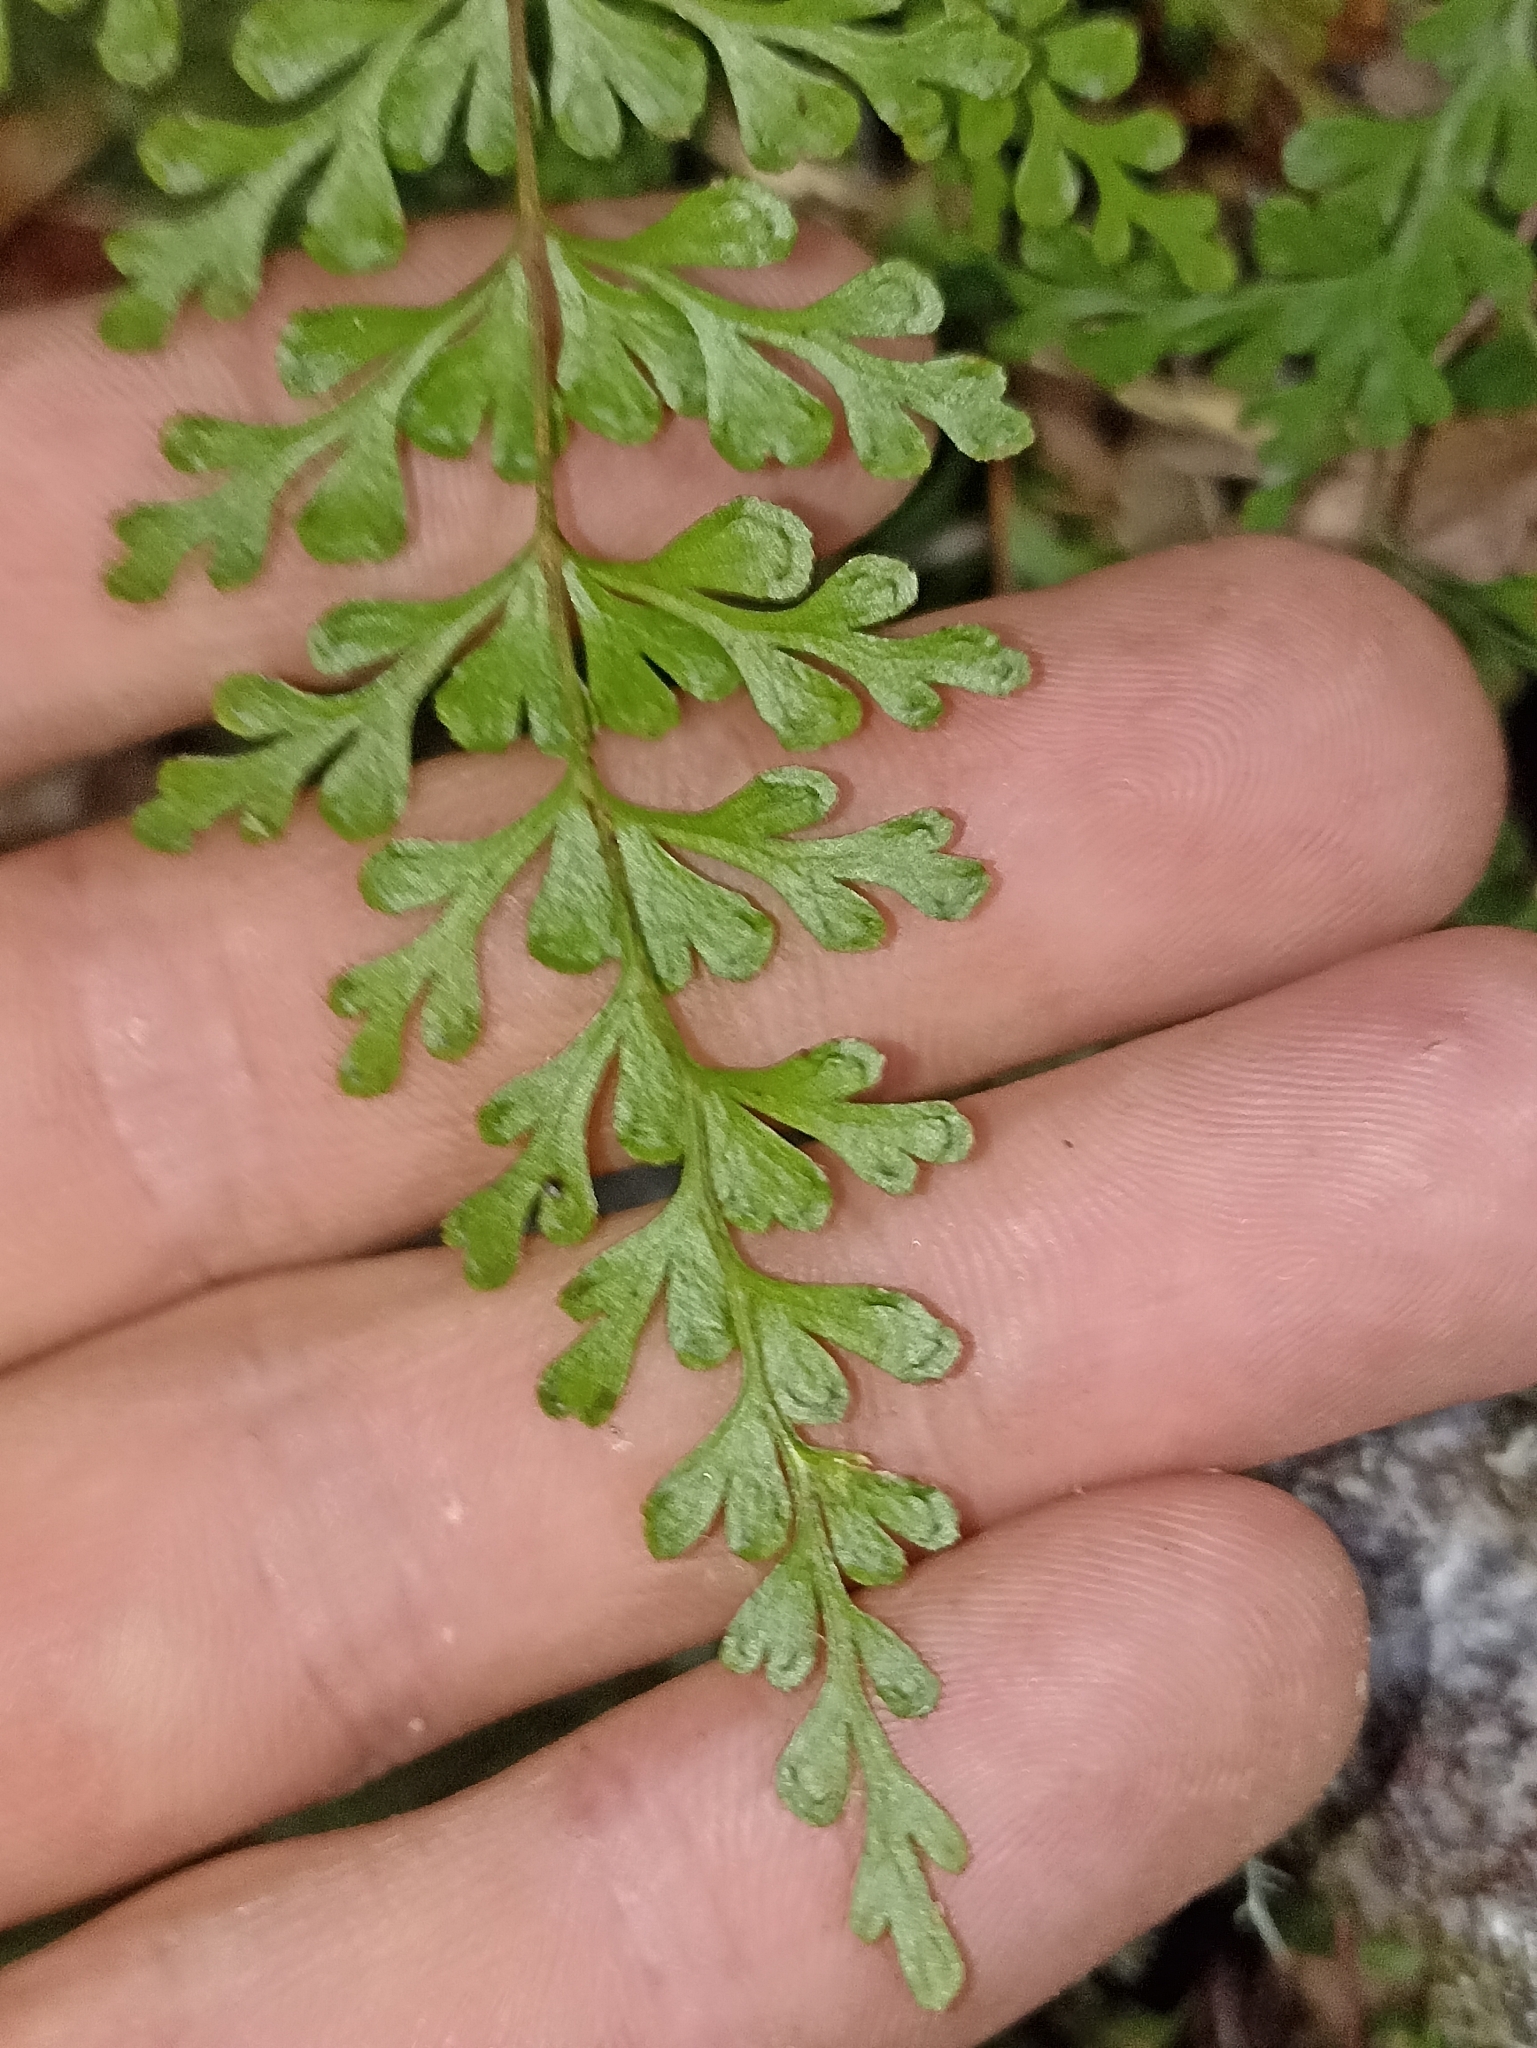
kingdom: Plantae
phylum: Tracheophyta
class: Polypodiopsida
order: Polypodiales
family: Lindsaeaceae
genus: Lindsaea
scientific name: Lindsaea trichomanoides
